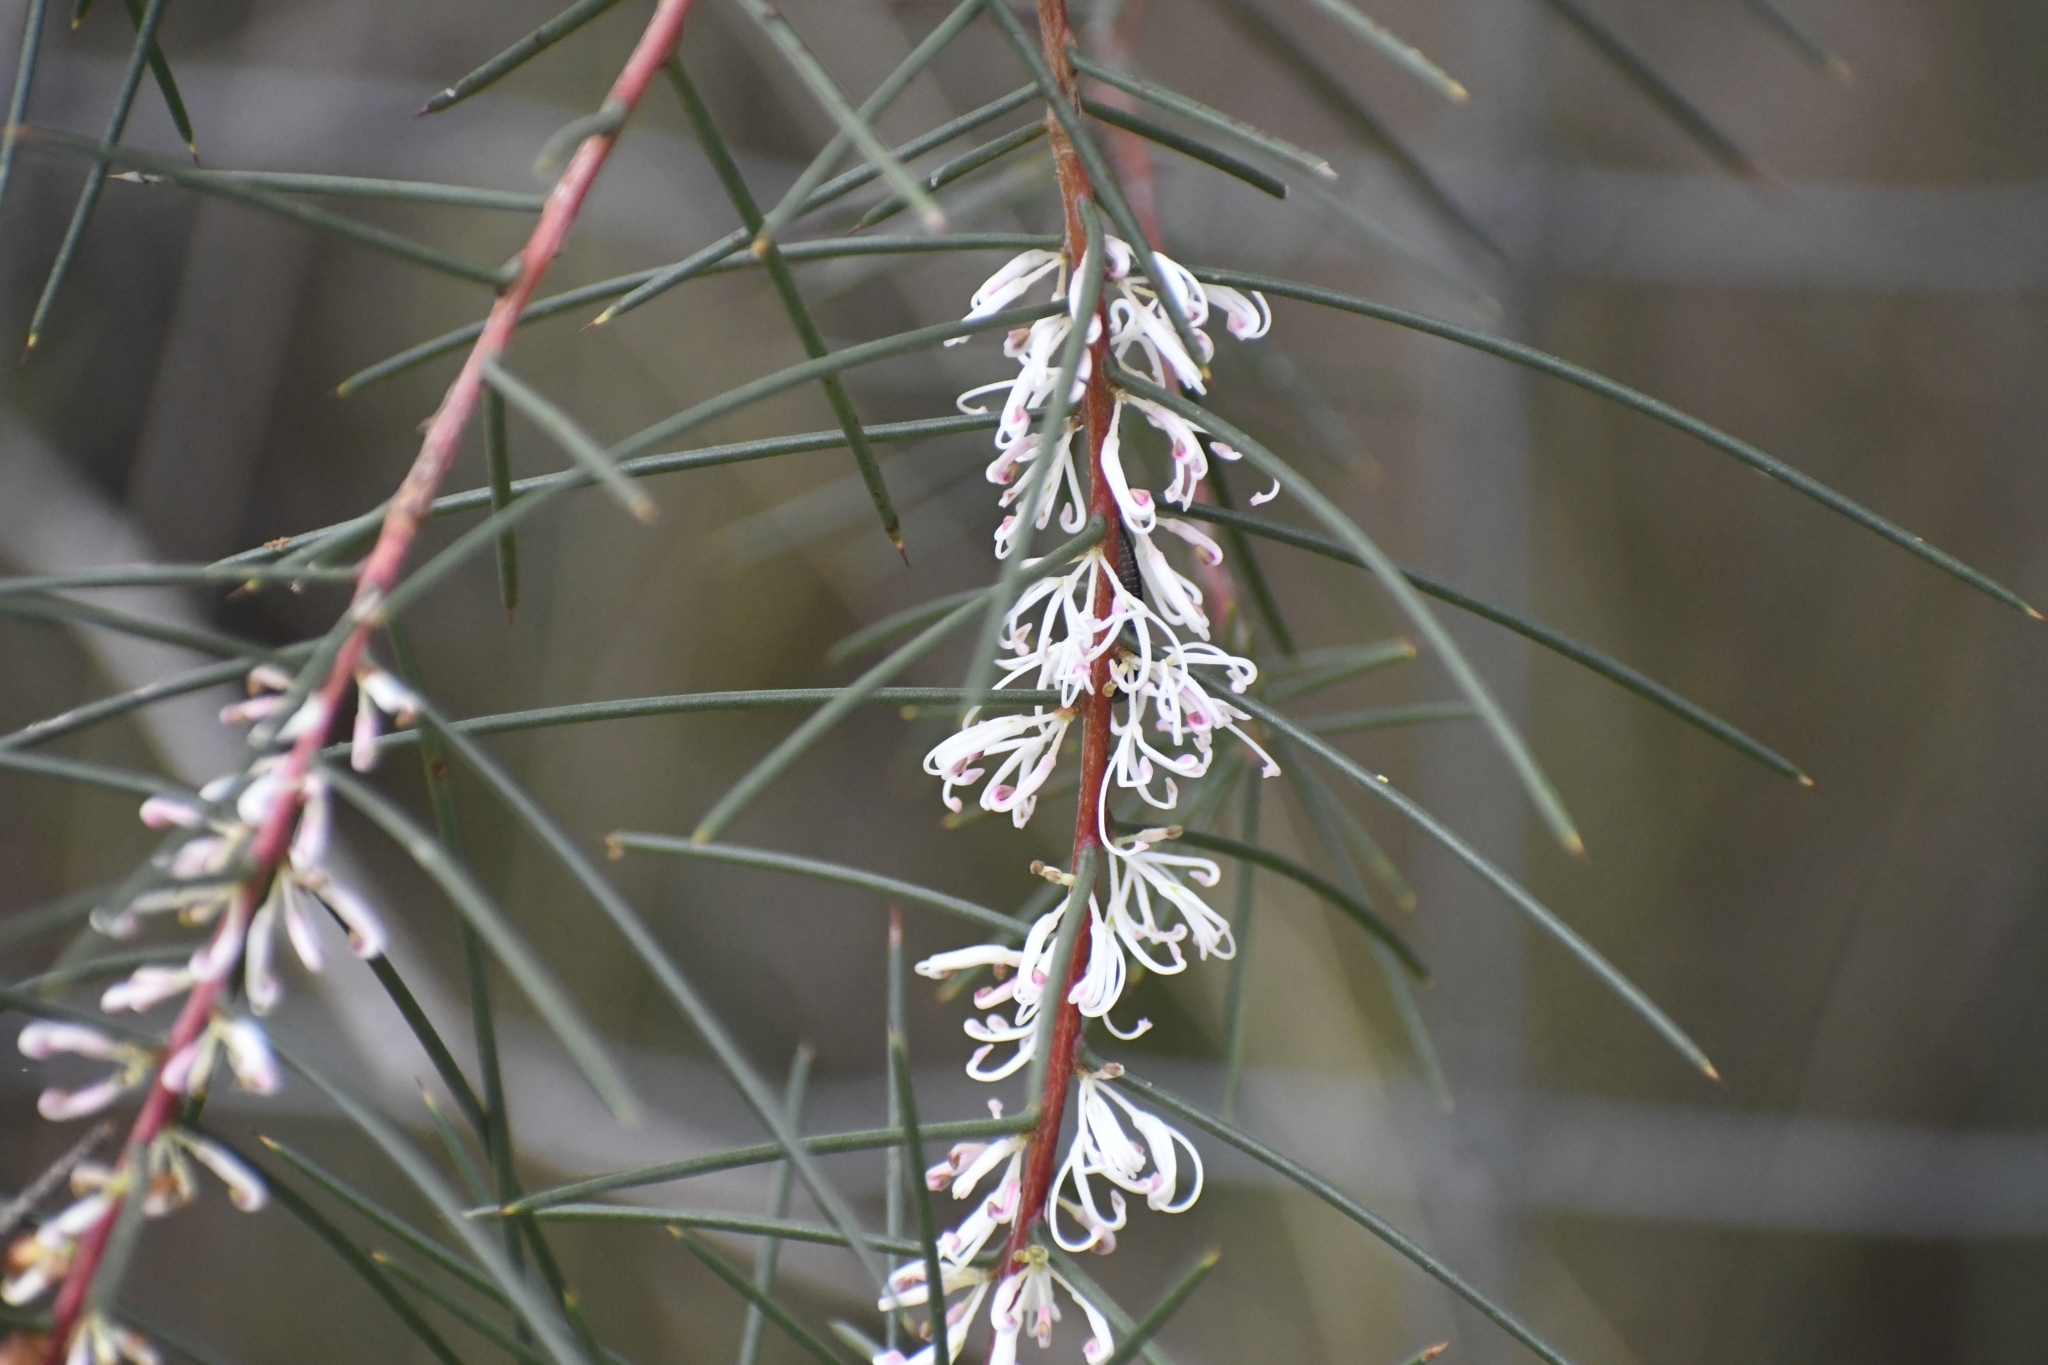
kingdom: Plantae
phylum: Tracheophyta
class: Magnoliopsida
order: Proteales
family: Proteaceae
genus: Hakea
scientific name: Hakea decurrens
